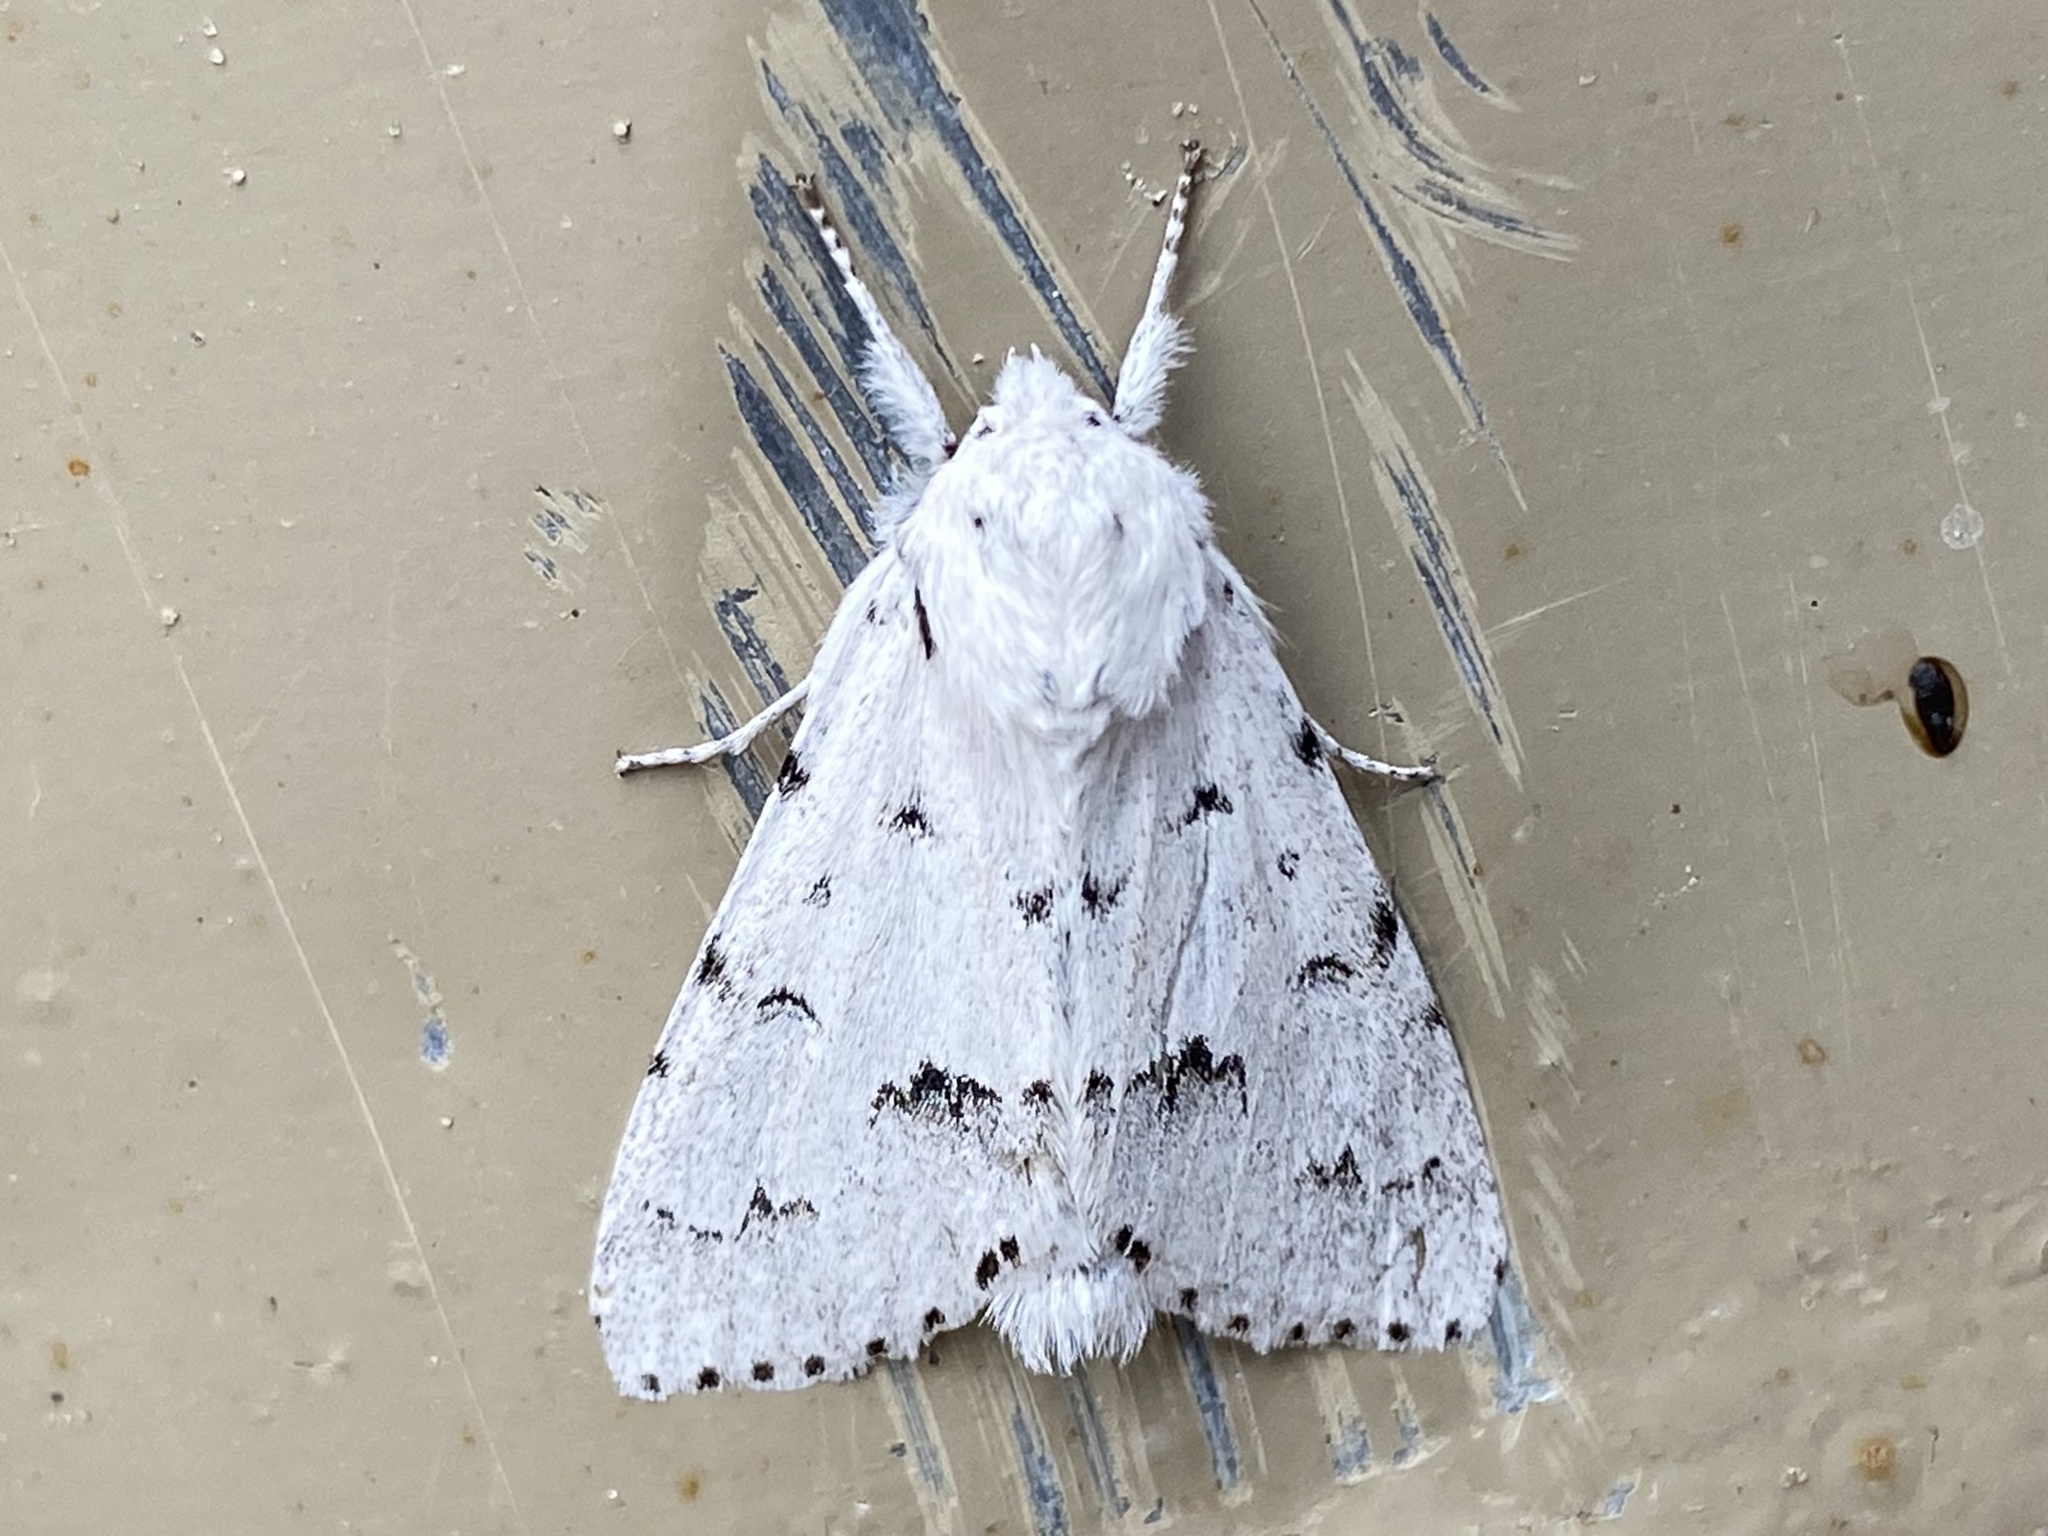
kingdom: Animalia
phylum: Arthropoda
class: Insecta
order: Lepidoptera
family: Noctuidae
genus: Acronicta
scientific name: Acronicta vulpina
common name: Miller dagger
